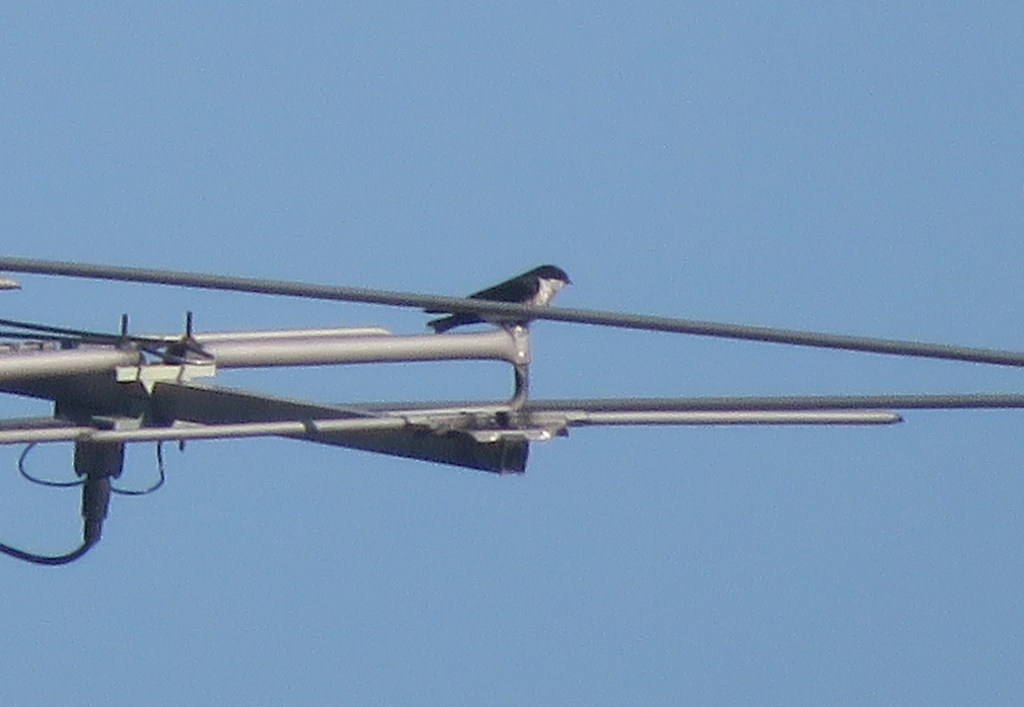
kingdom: Animalia
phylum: Chordata
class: Aves
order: Passeriformes
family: Hirundinidae
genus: Notiochelidon
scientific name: Notiochelidon cyanoleuca
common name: Blue-and-white swallow
